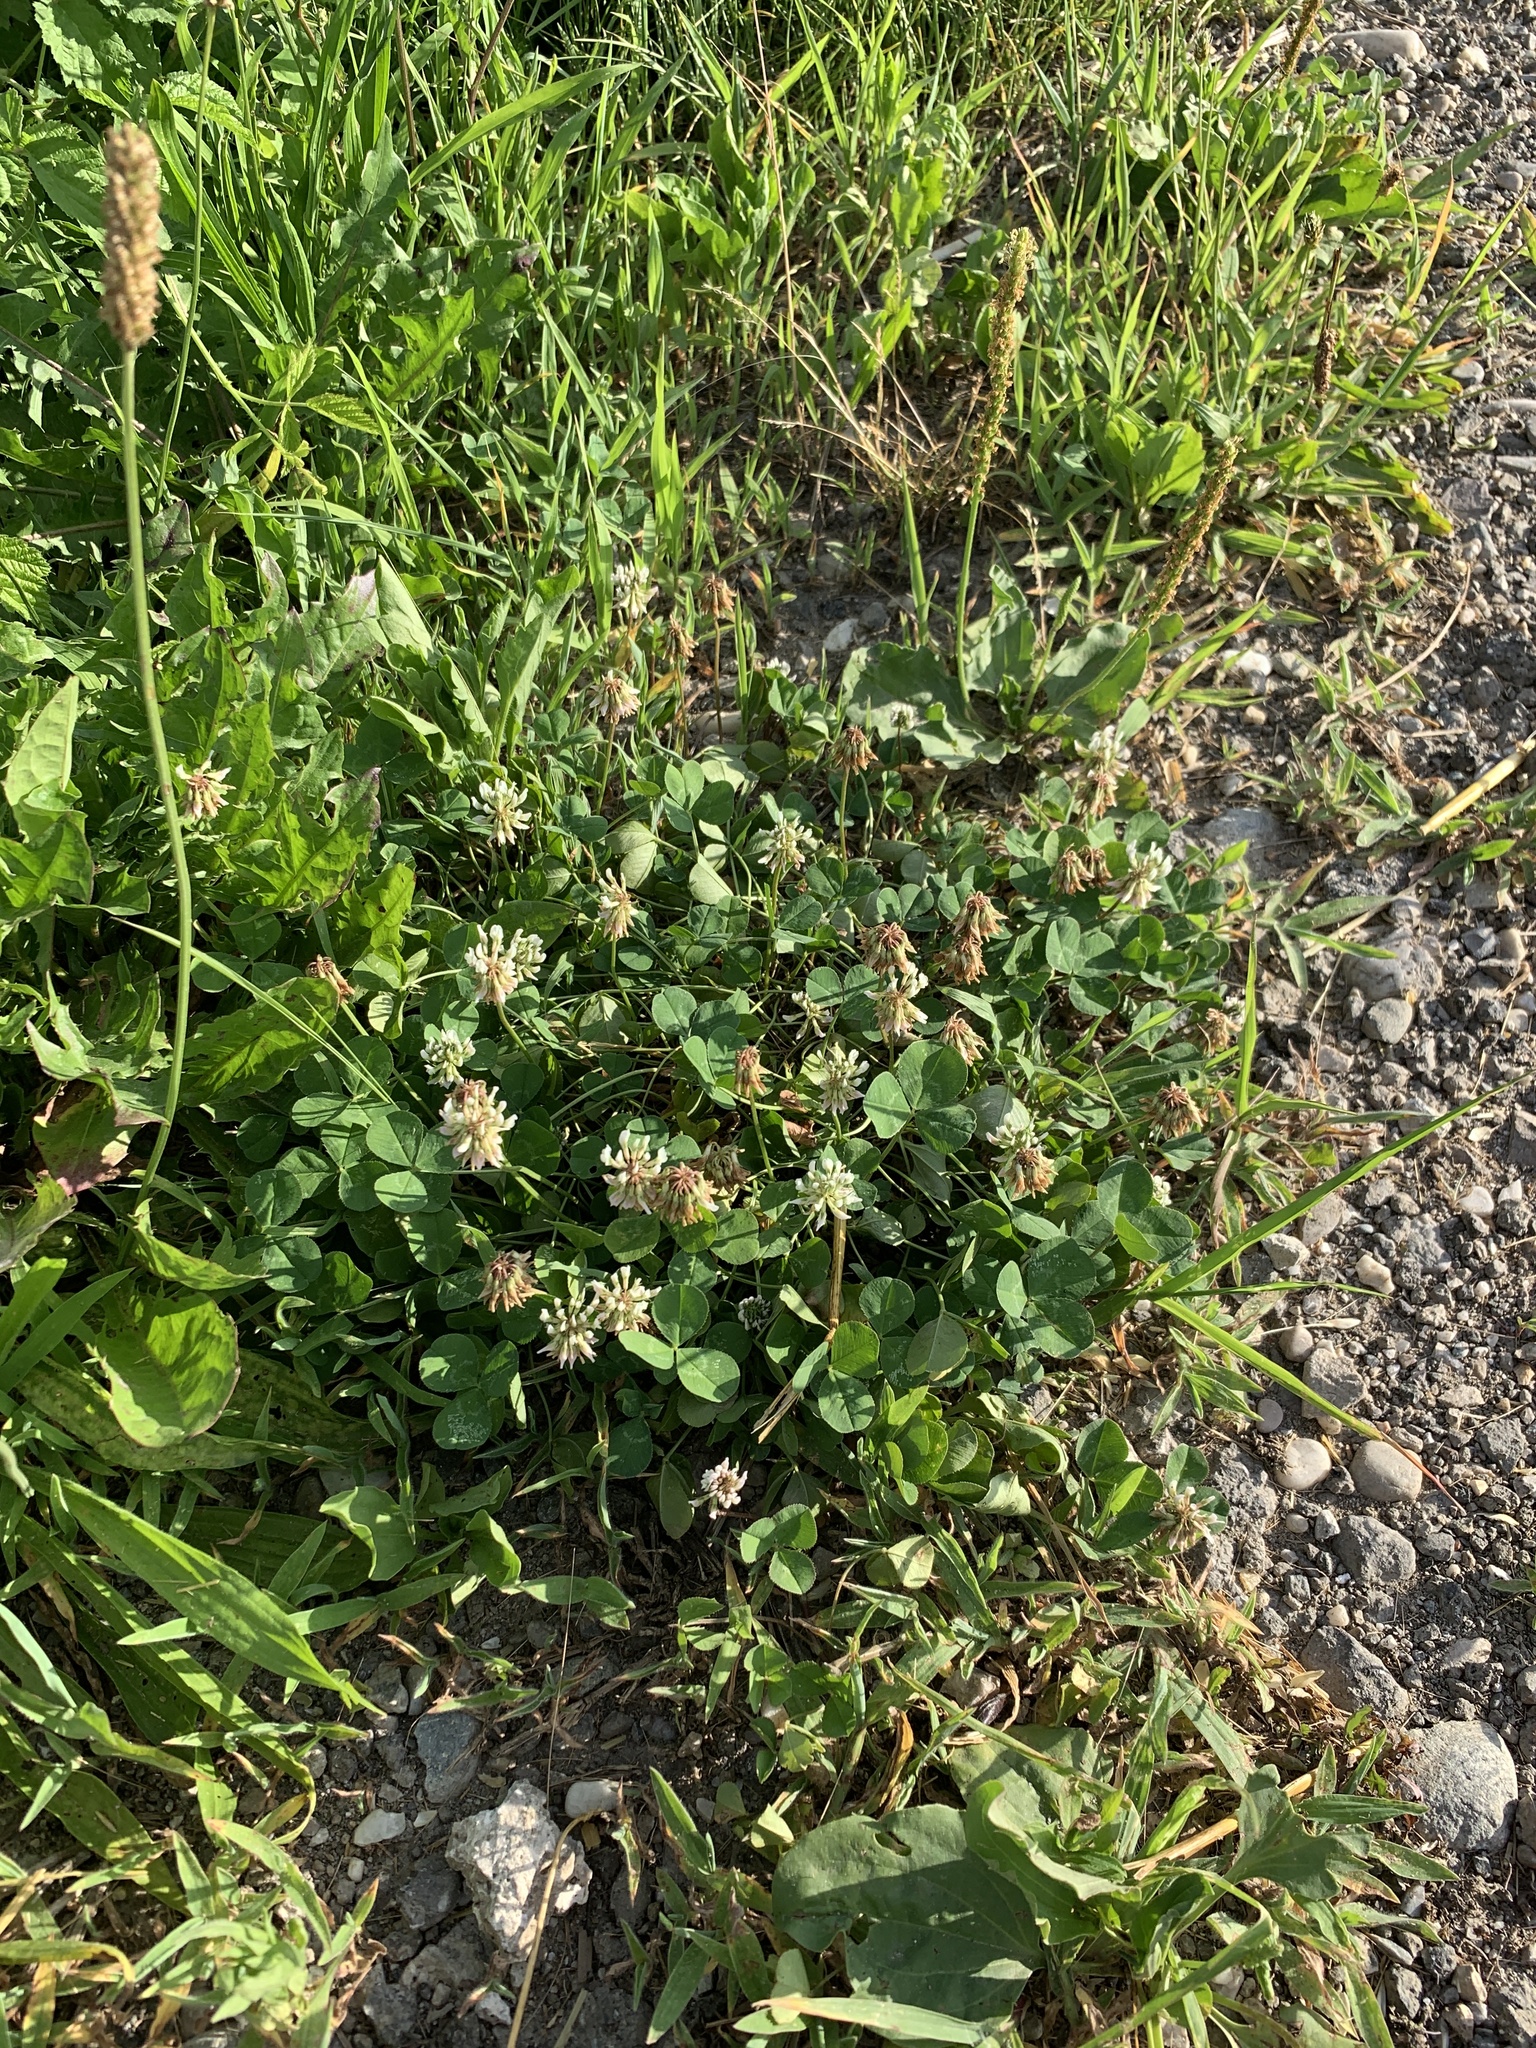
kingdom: Plantae
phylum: Tracheophyta
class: Magnoliopsida
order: Fabales
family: Fabaceae
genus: Trifolium
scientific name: Trifolium repens
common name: White clover
